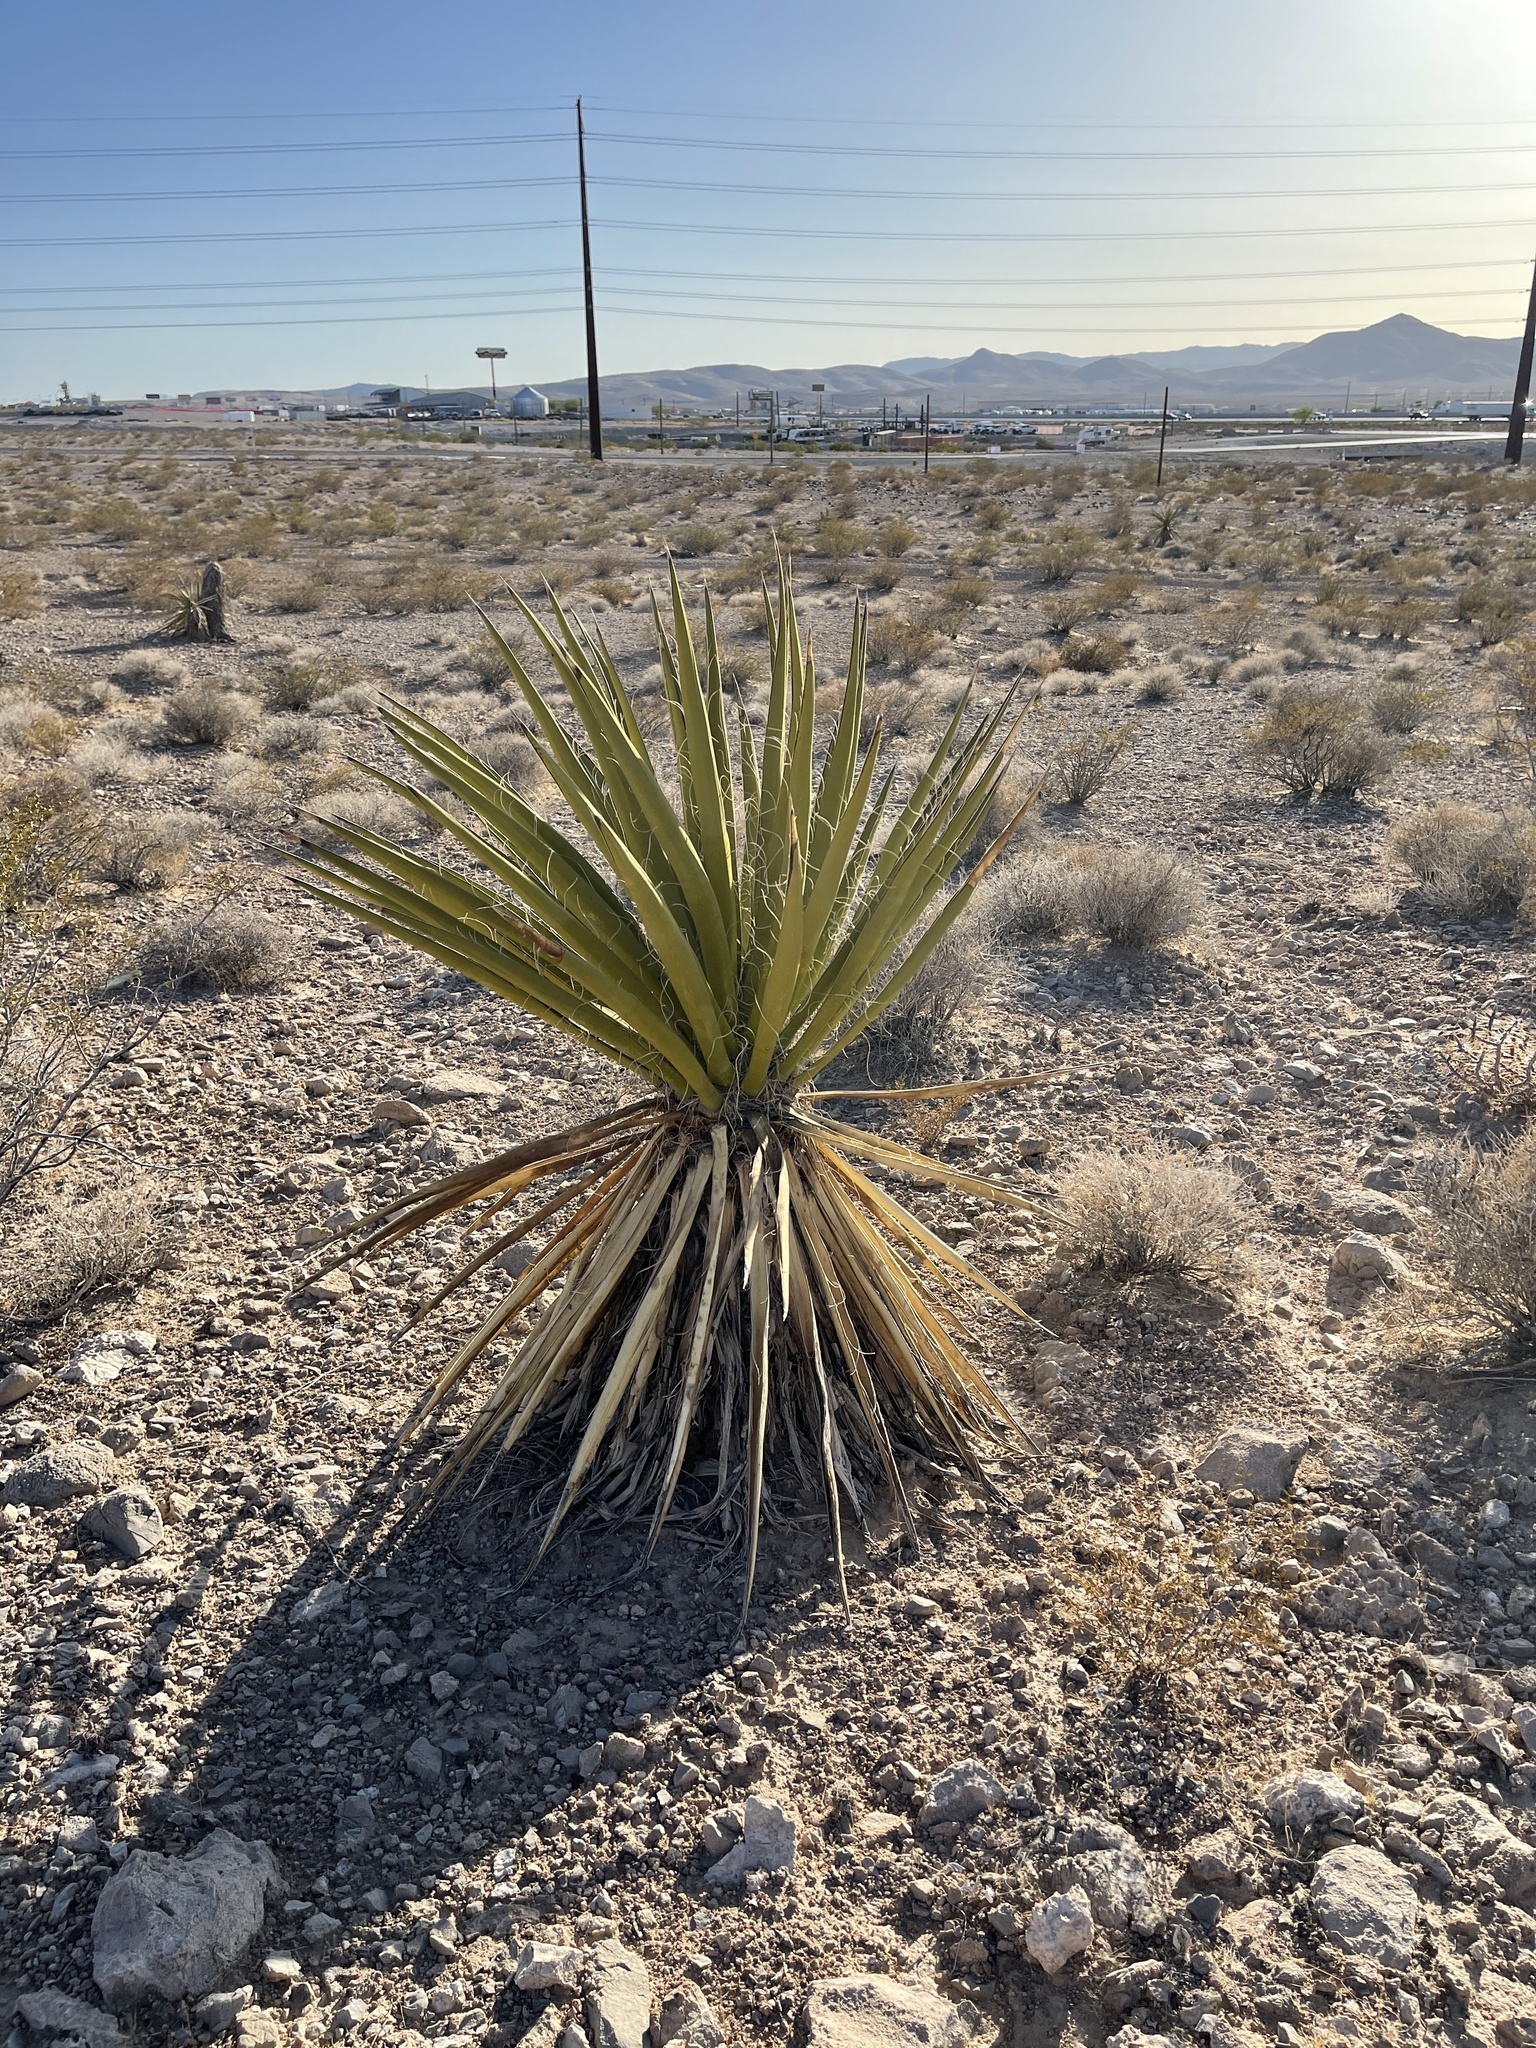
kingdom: Plantae
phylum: Tracheophyta
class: Liliopsida
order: Asparagales
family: Asparagaceae
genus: Yucca
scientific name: Yucca schidigera
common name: Mojave yucca
